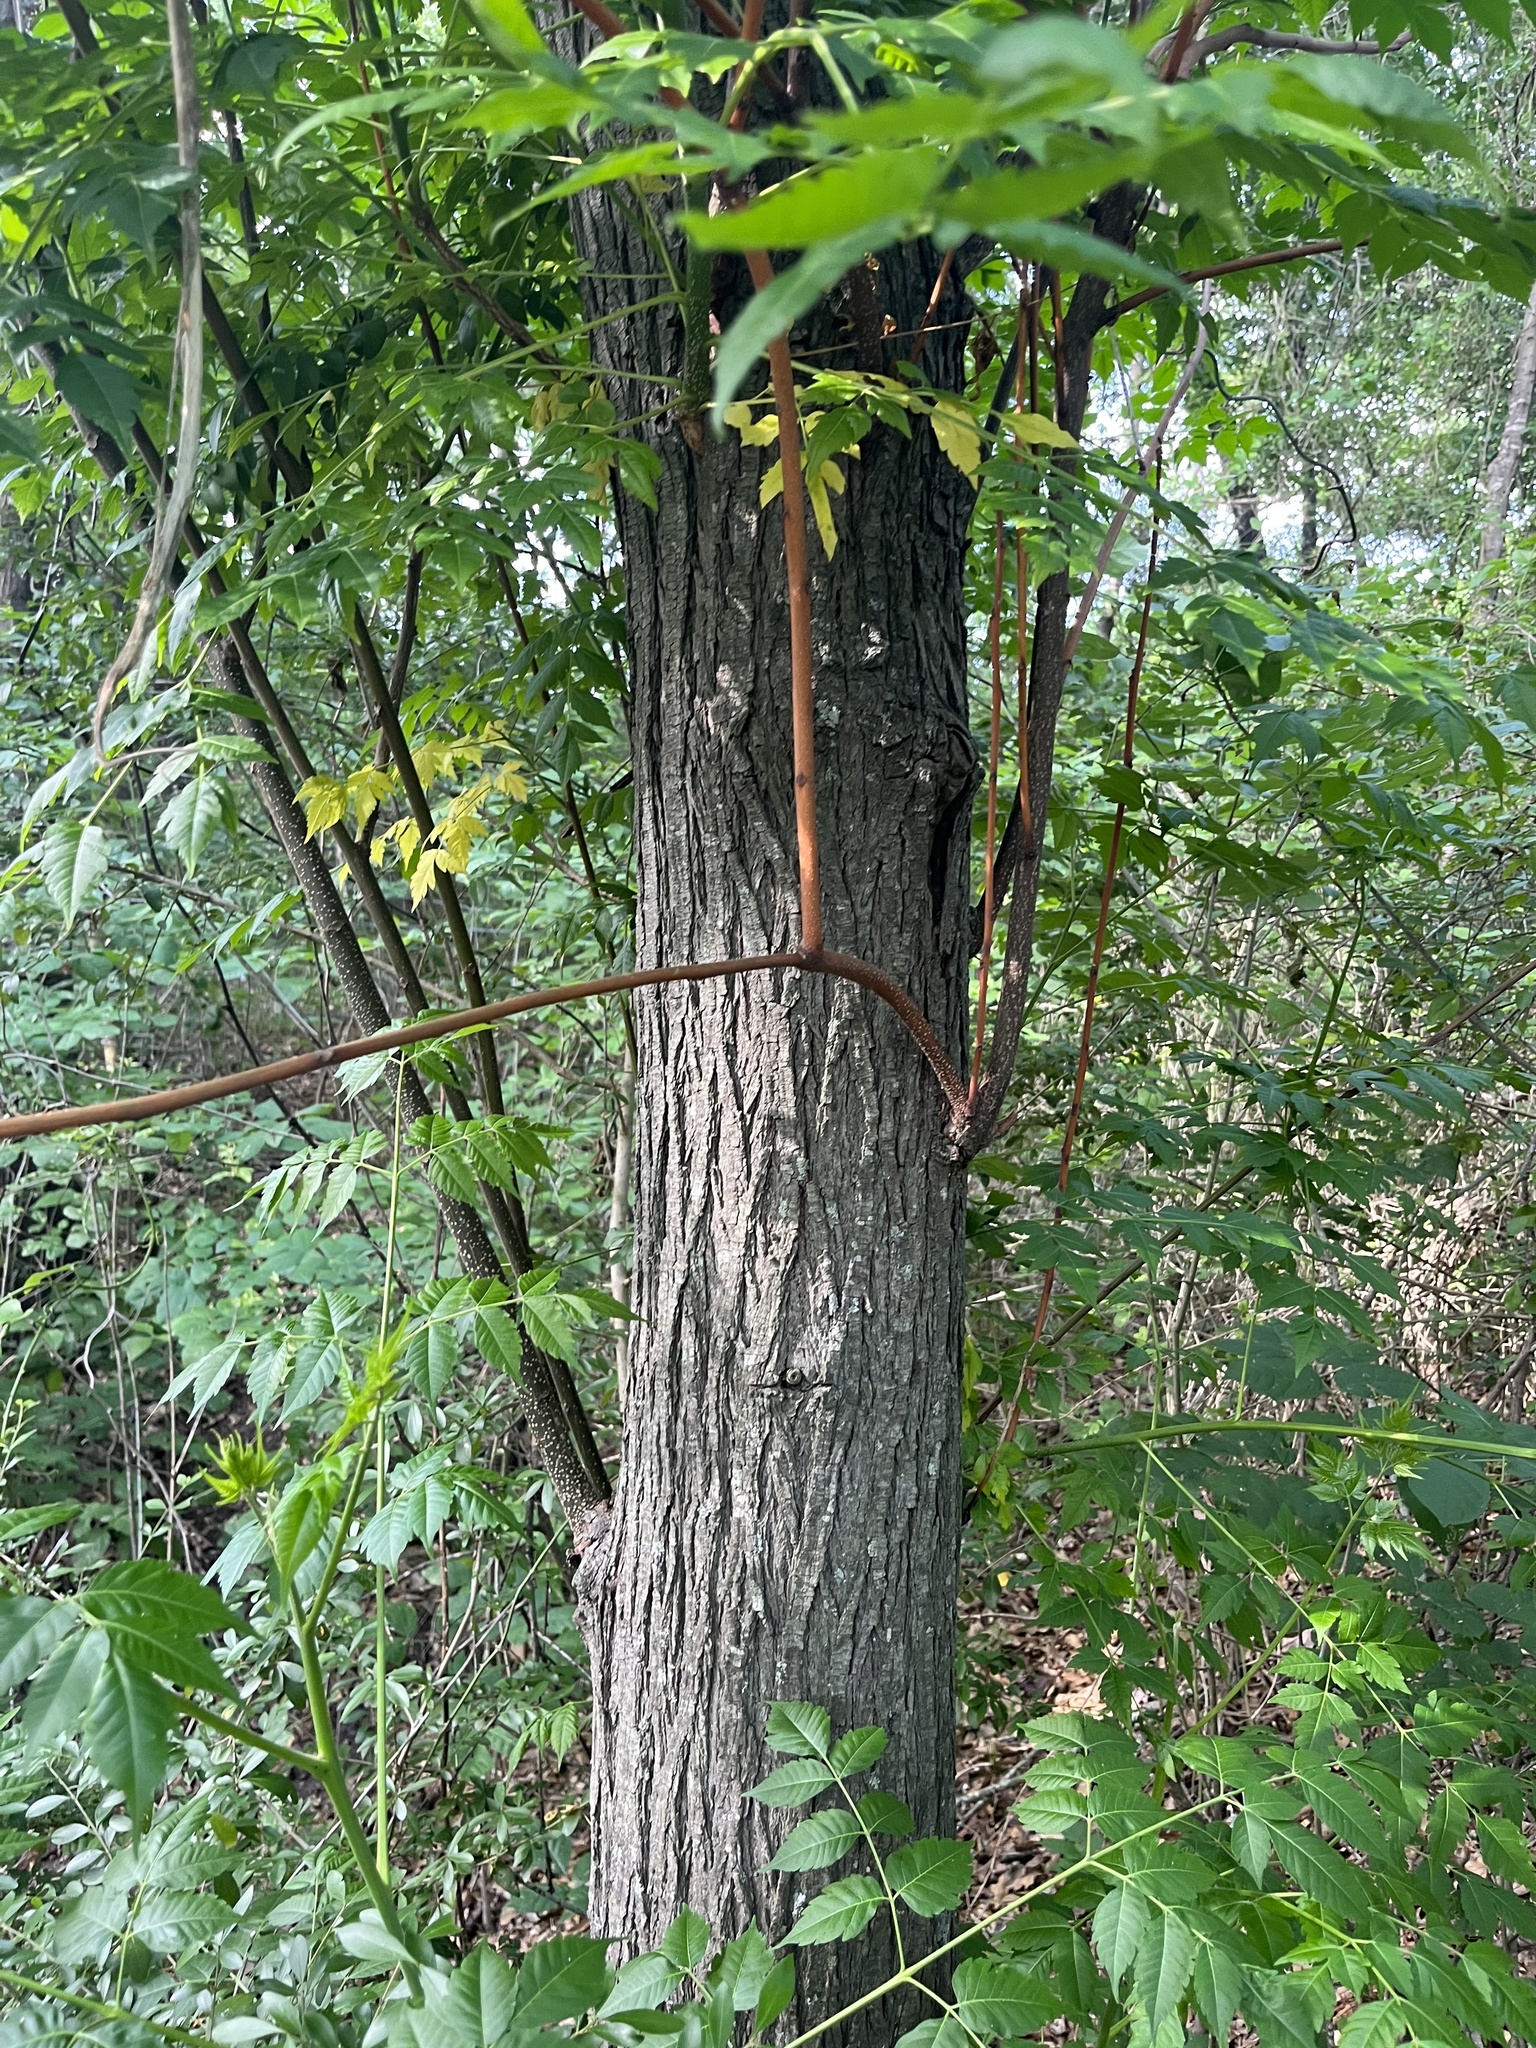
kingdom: Plantae
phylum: Tracheophyta
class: Magnoliopsida
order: Sapindales
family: Meliaceae
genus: Melia
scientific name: Melia azedarach
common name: Chinaberrytree
